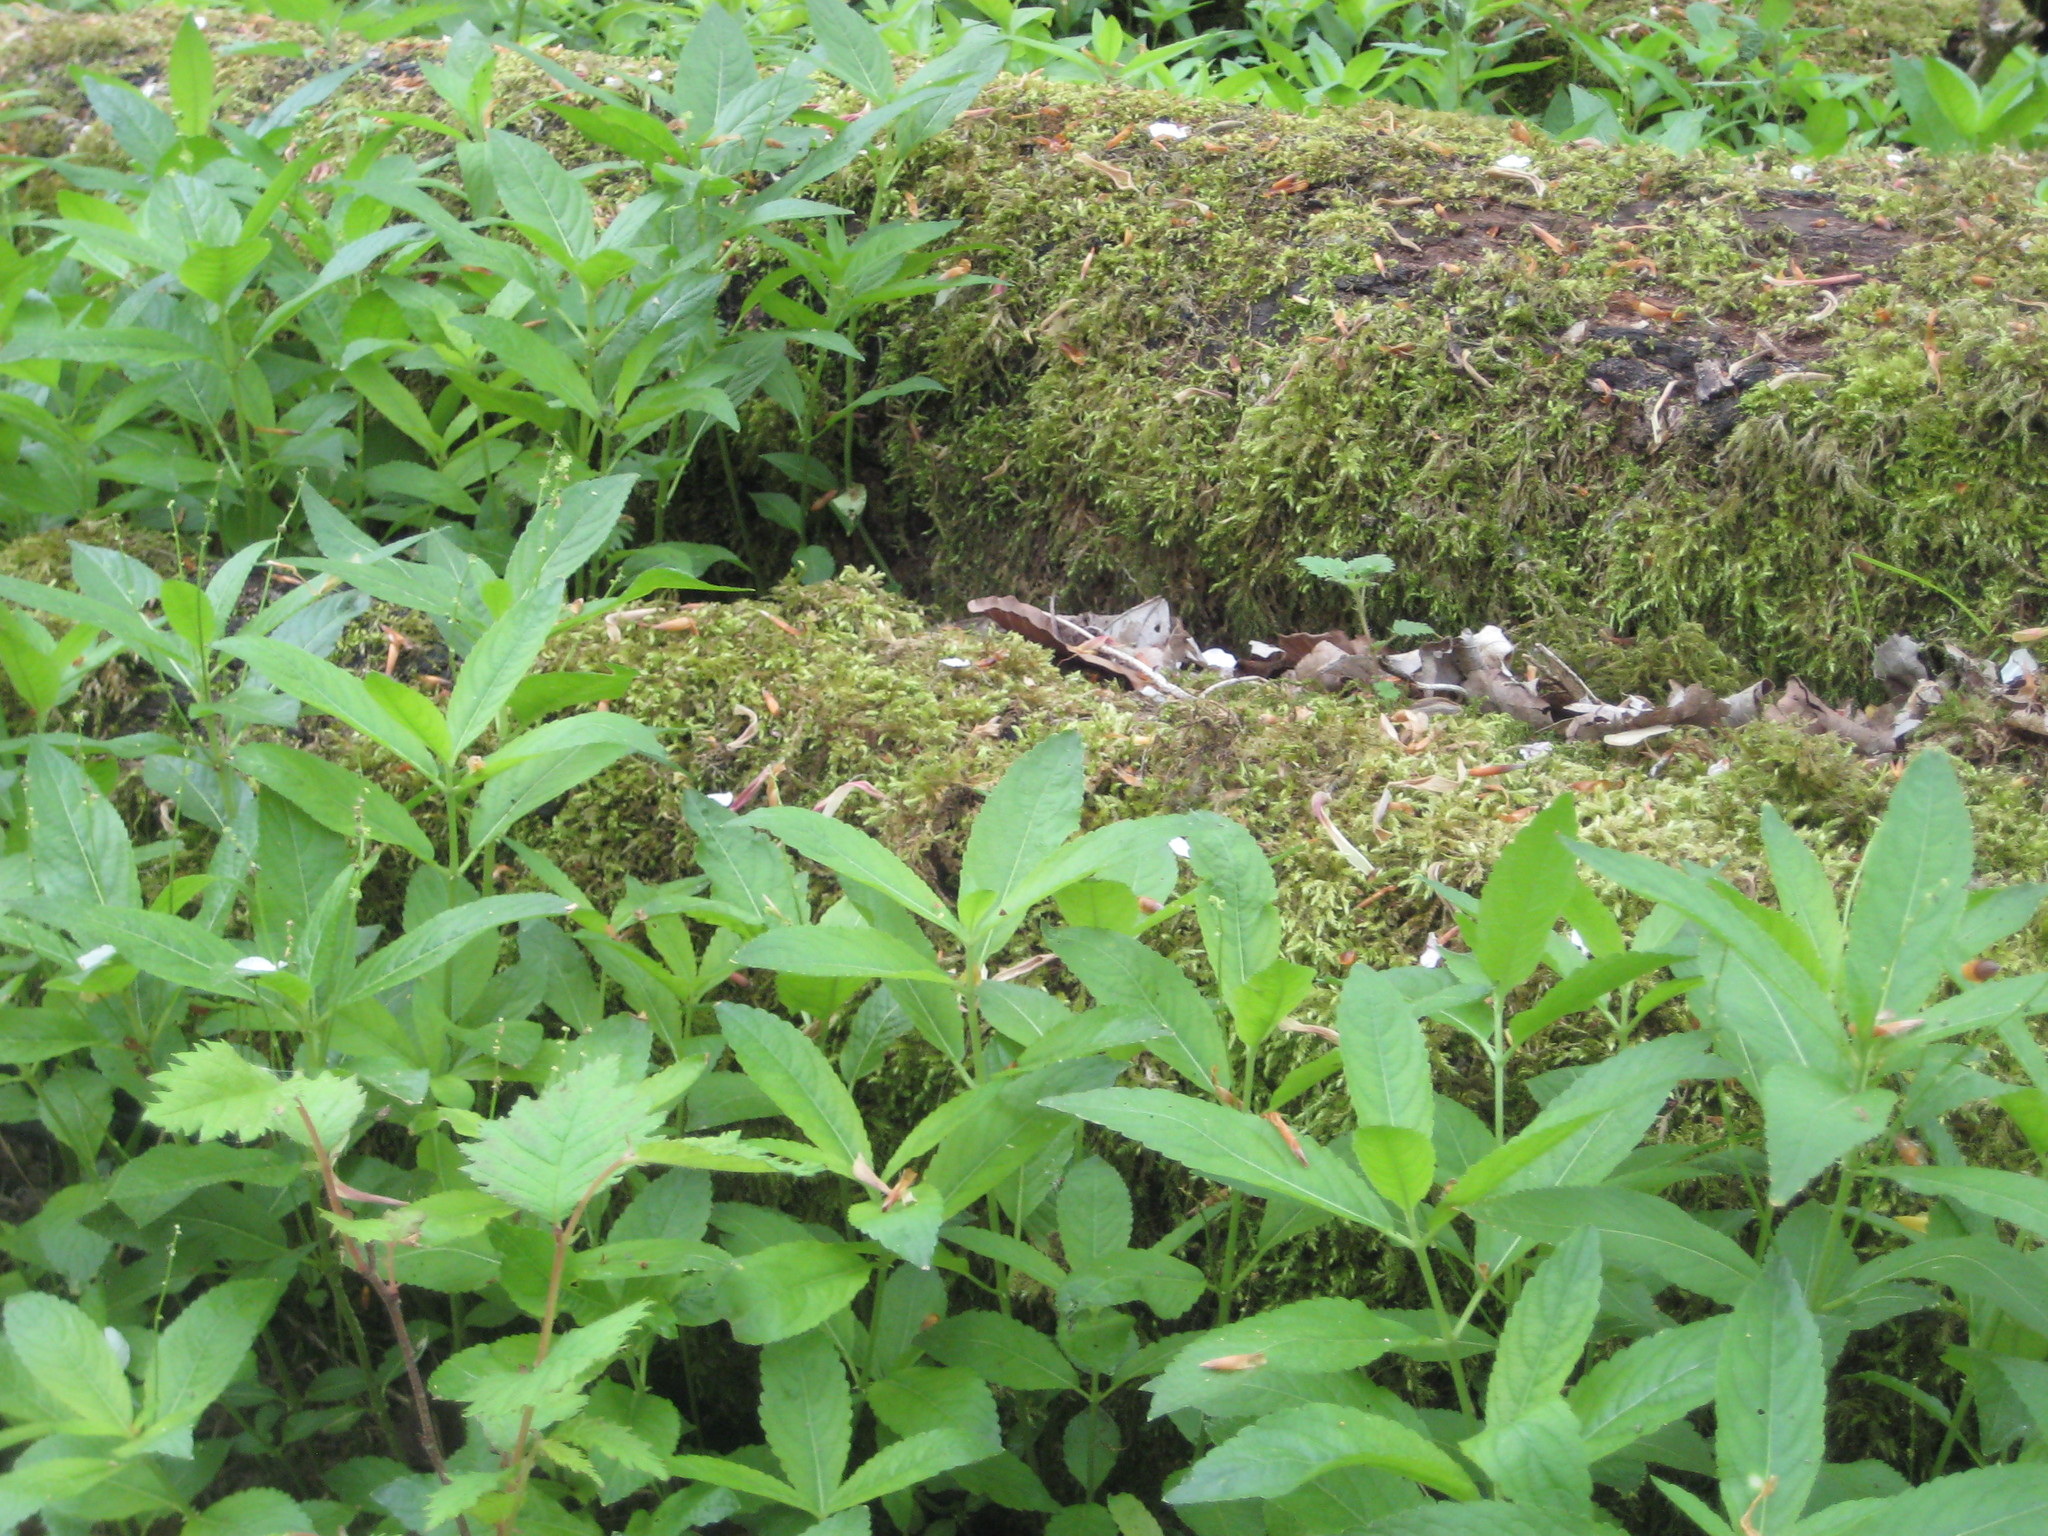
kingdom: Plantae
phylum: Tracheophyta
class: Magnoliopsida
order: Malpighiales
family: Euphorbiaceae
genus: Mercurialis
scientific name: Mercurialis perennis
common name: Dog mercury
